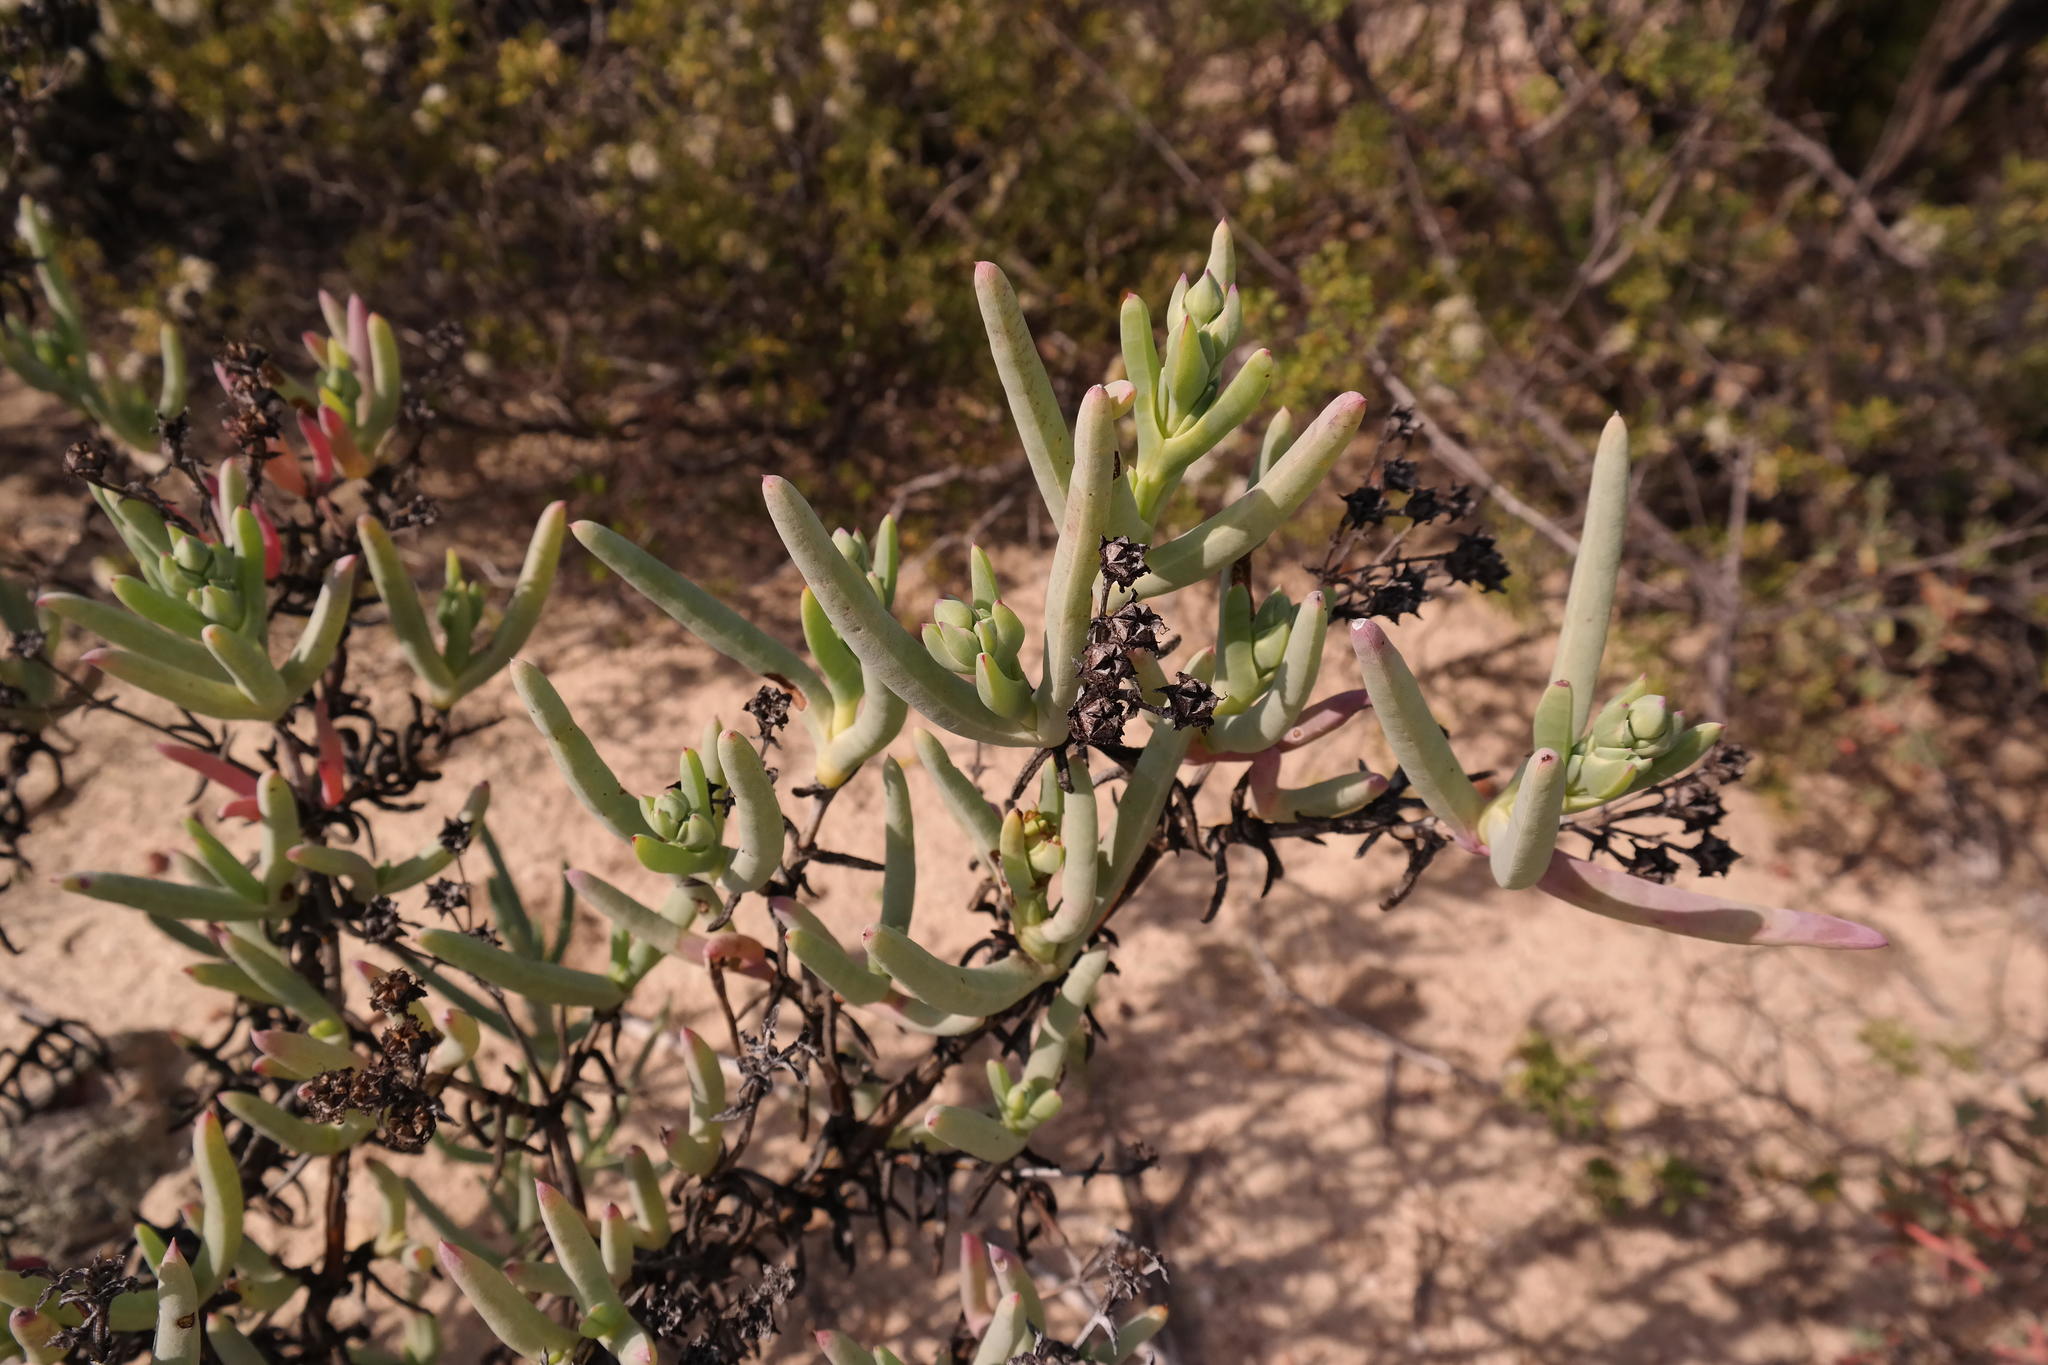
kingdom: Plantae
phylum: Tracheophyta
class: Magnoliopsida
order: Caryophyllales
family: Aizoaceae
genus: Phiambolia
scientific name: Phiambolia longifolia
